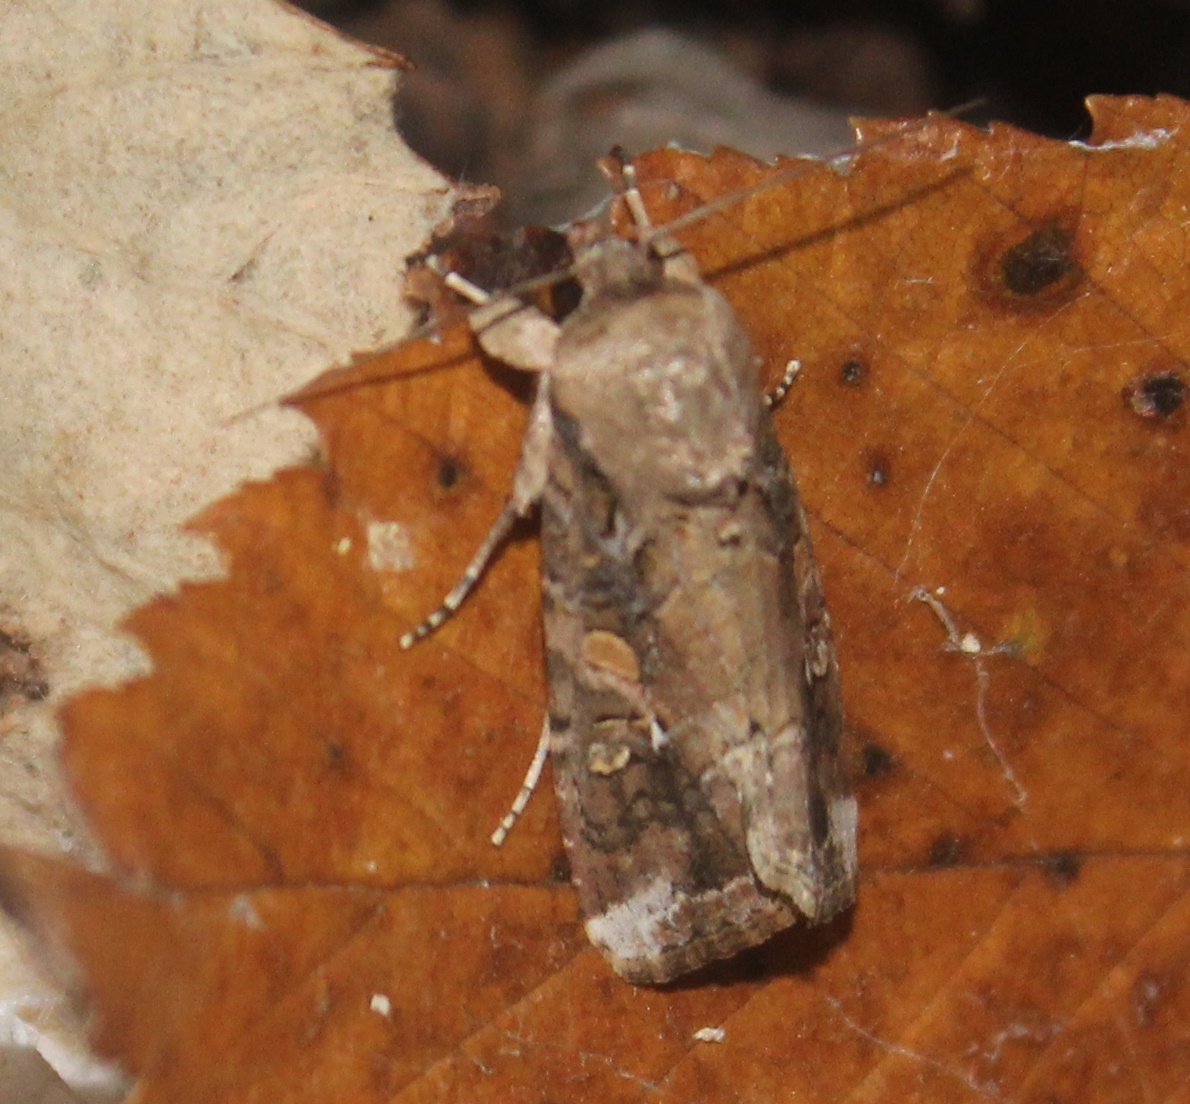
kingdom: Animalia
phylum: Arthropoda
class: Insecta
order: Lepidoptera
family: Noctuidae
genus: Spodoptera
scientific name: Spodoptera frugiperda
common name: Fall armyworm
